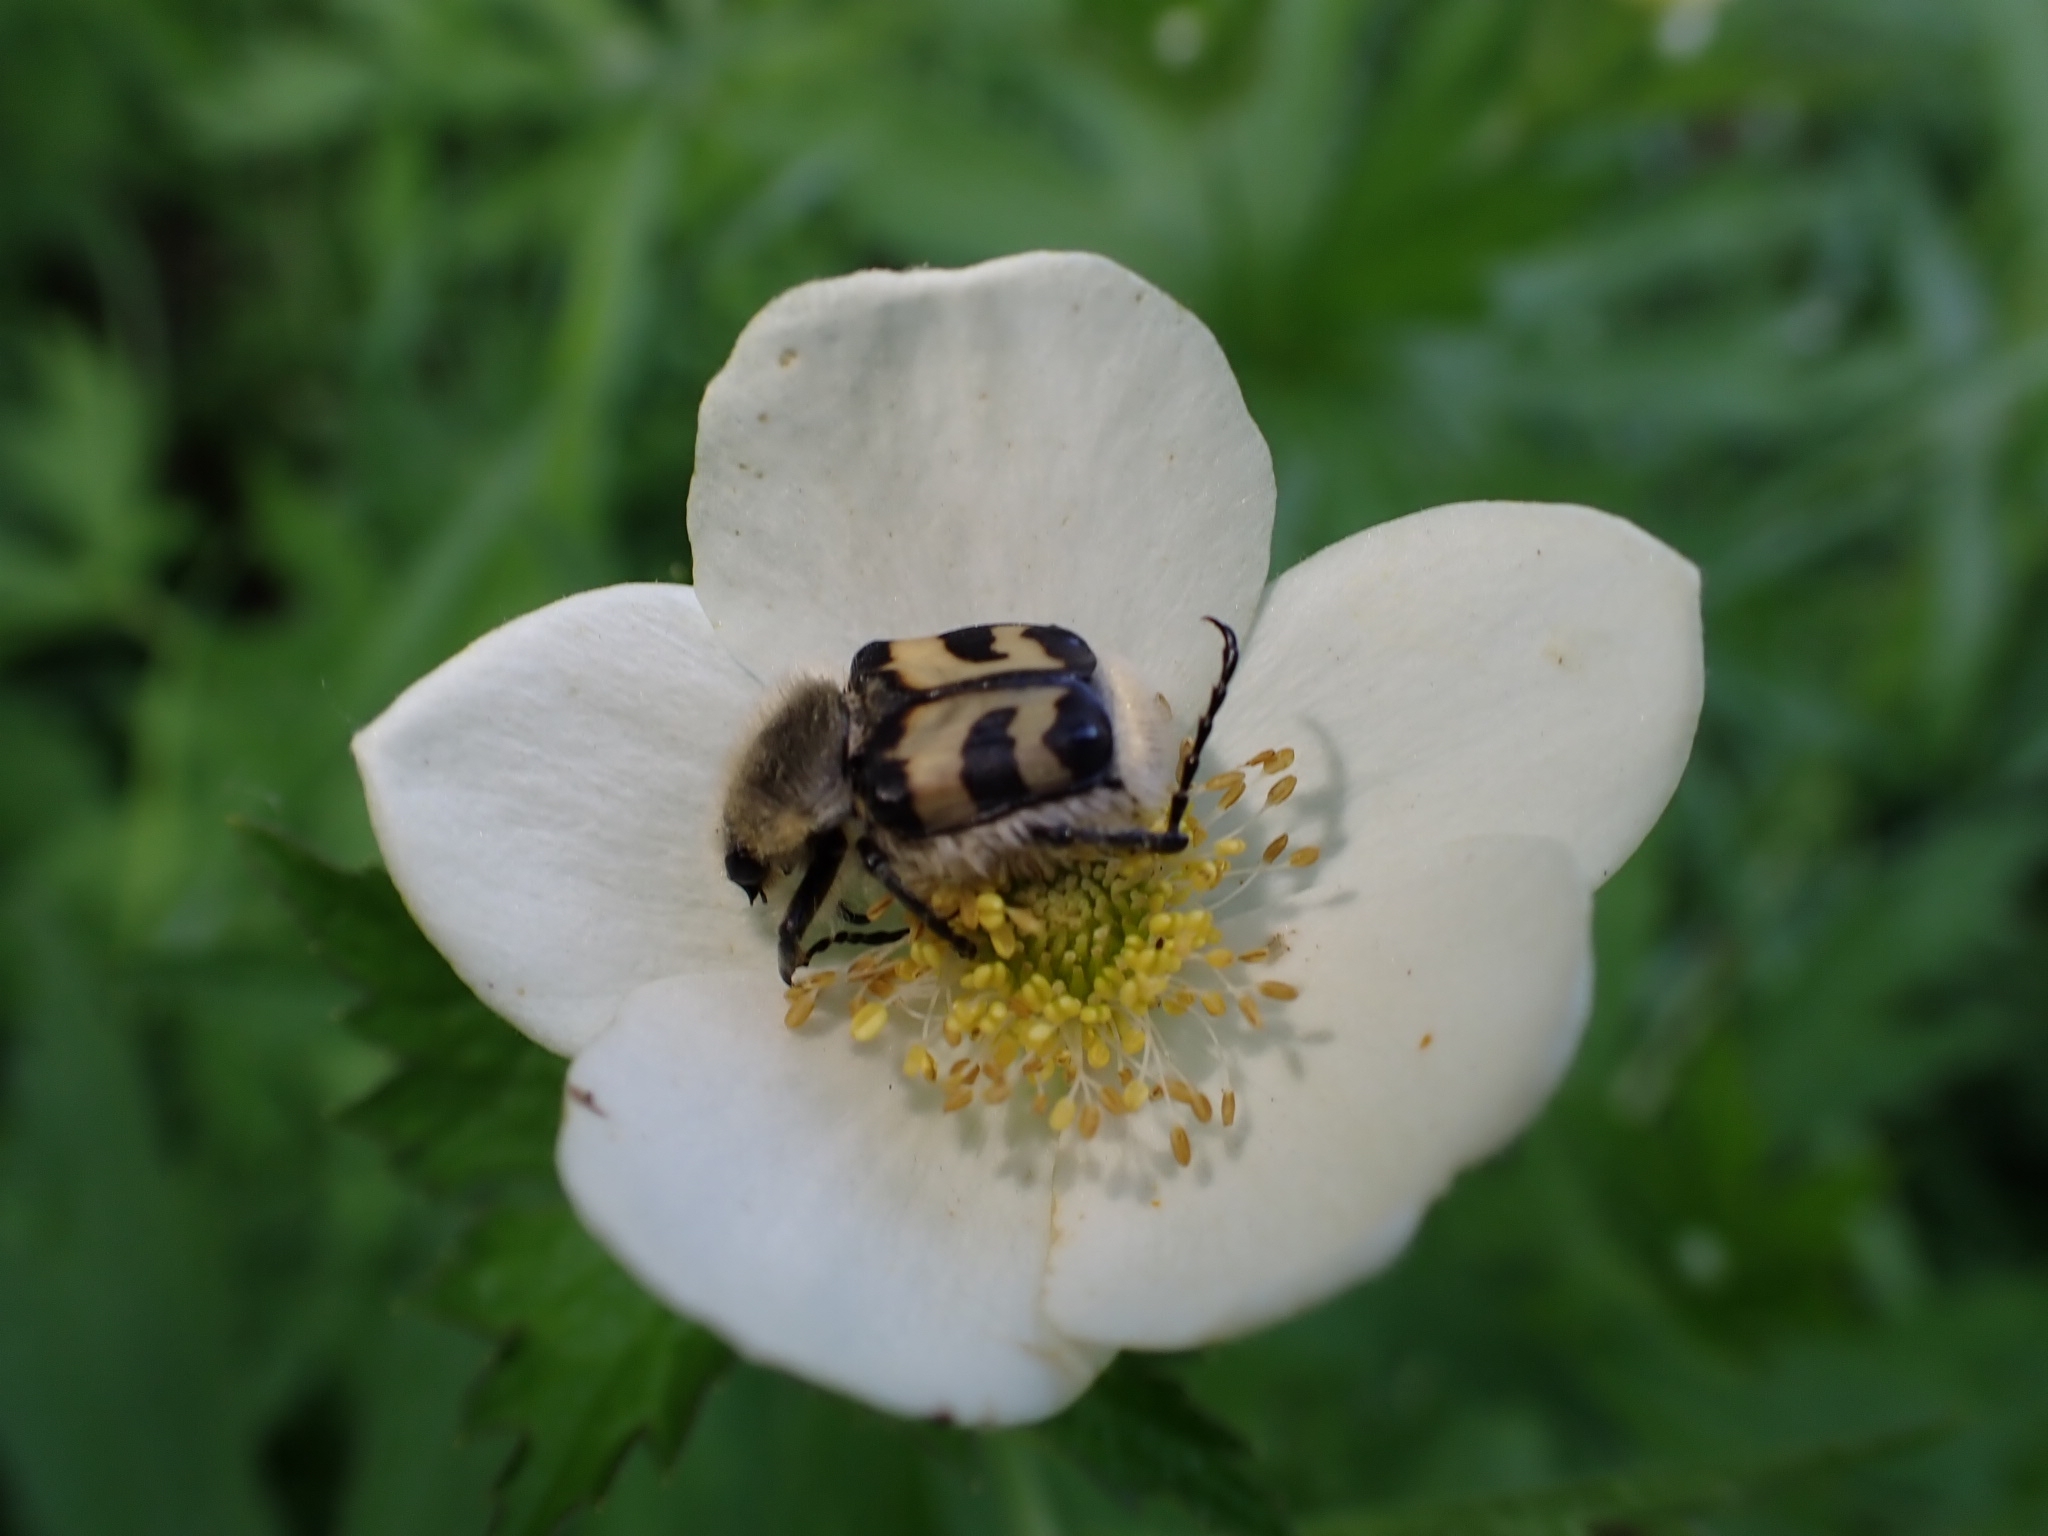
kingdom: Animalia
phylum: Arthropoda
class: Insecta
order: Coleoptera
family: Scarabaeidae
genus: Trichius
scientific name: Trichius fasciatus
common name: Bee beetle
